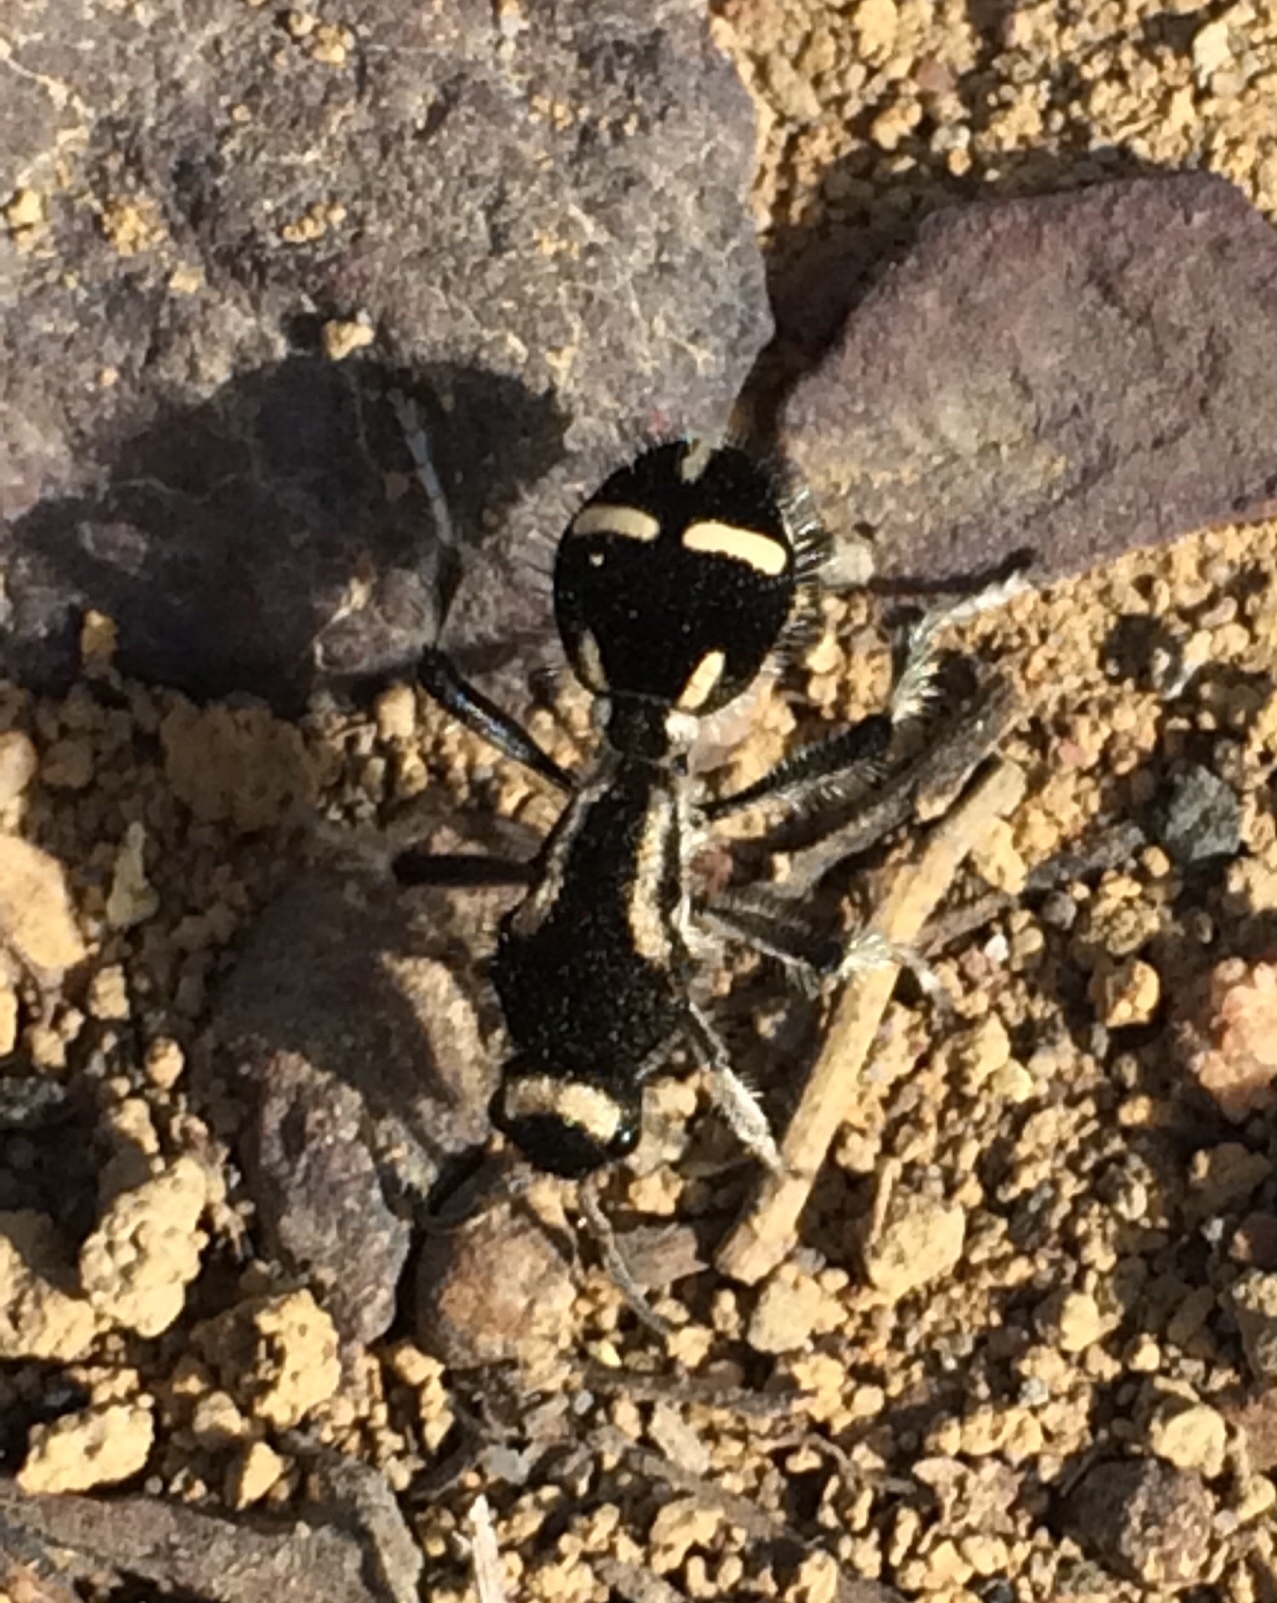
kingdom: Animalia
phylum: Arthropoda
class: Insecta
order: Hymenoptera
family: Mutillidae
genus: Traumatomutilla
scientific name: Traumatomutilla indica
